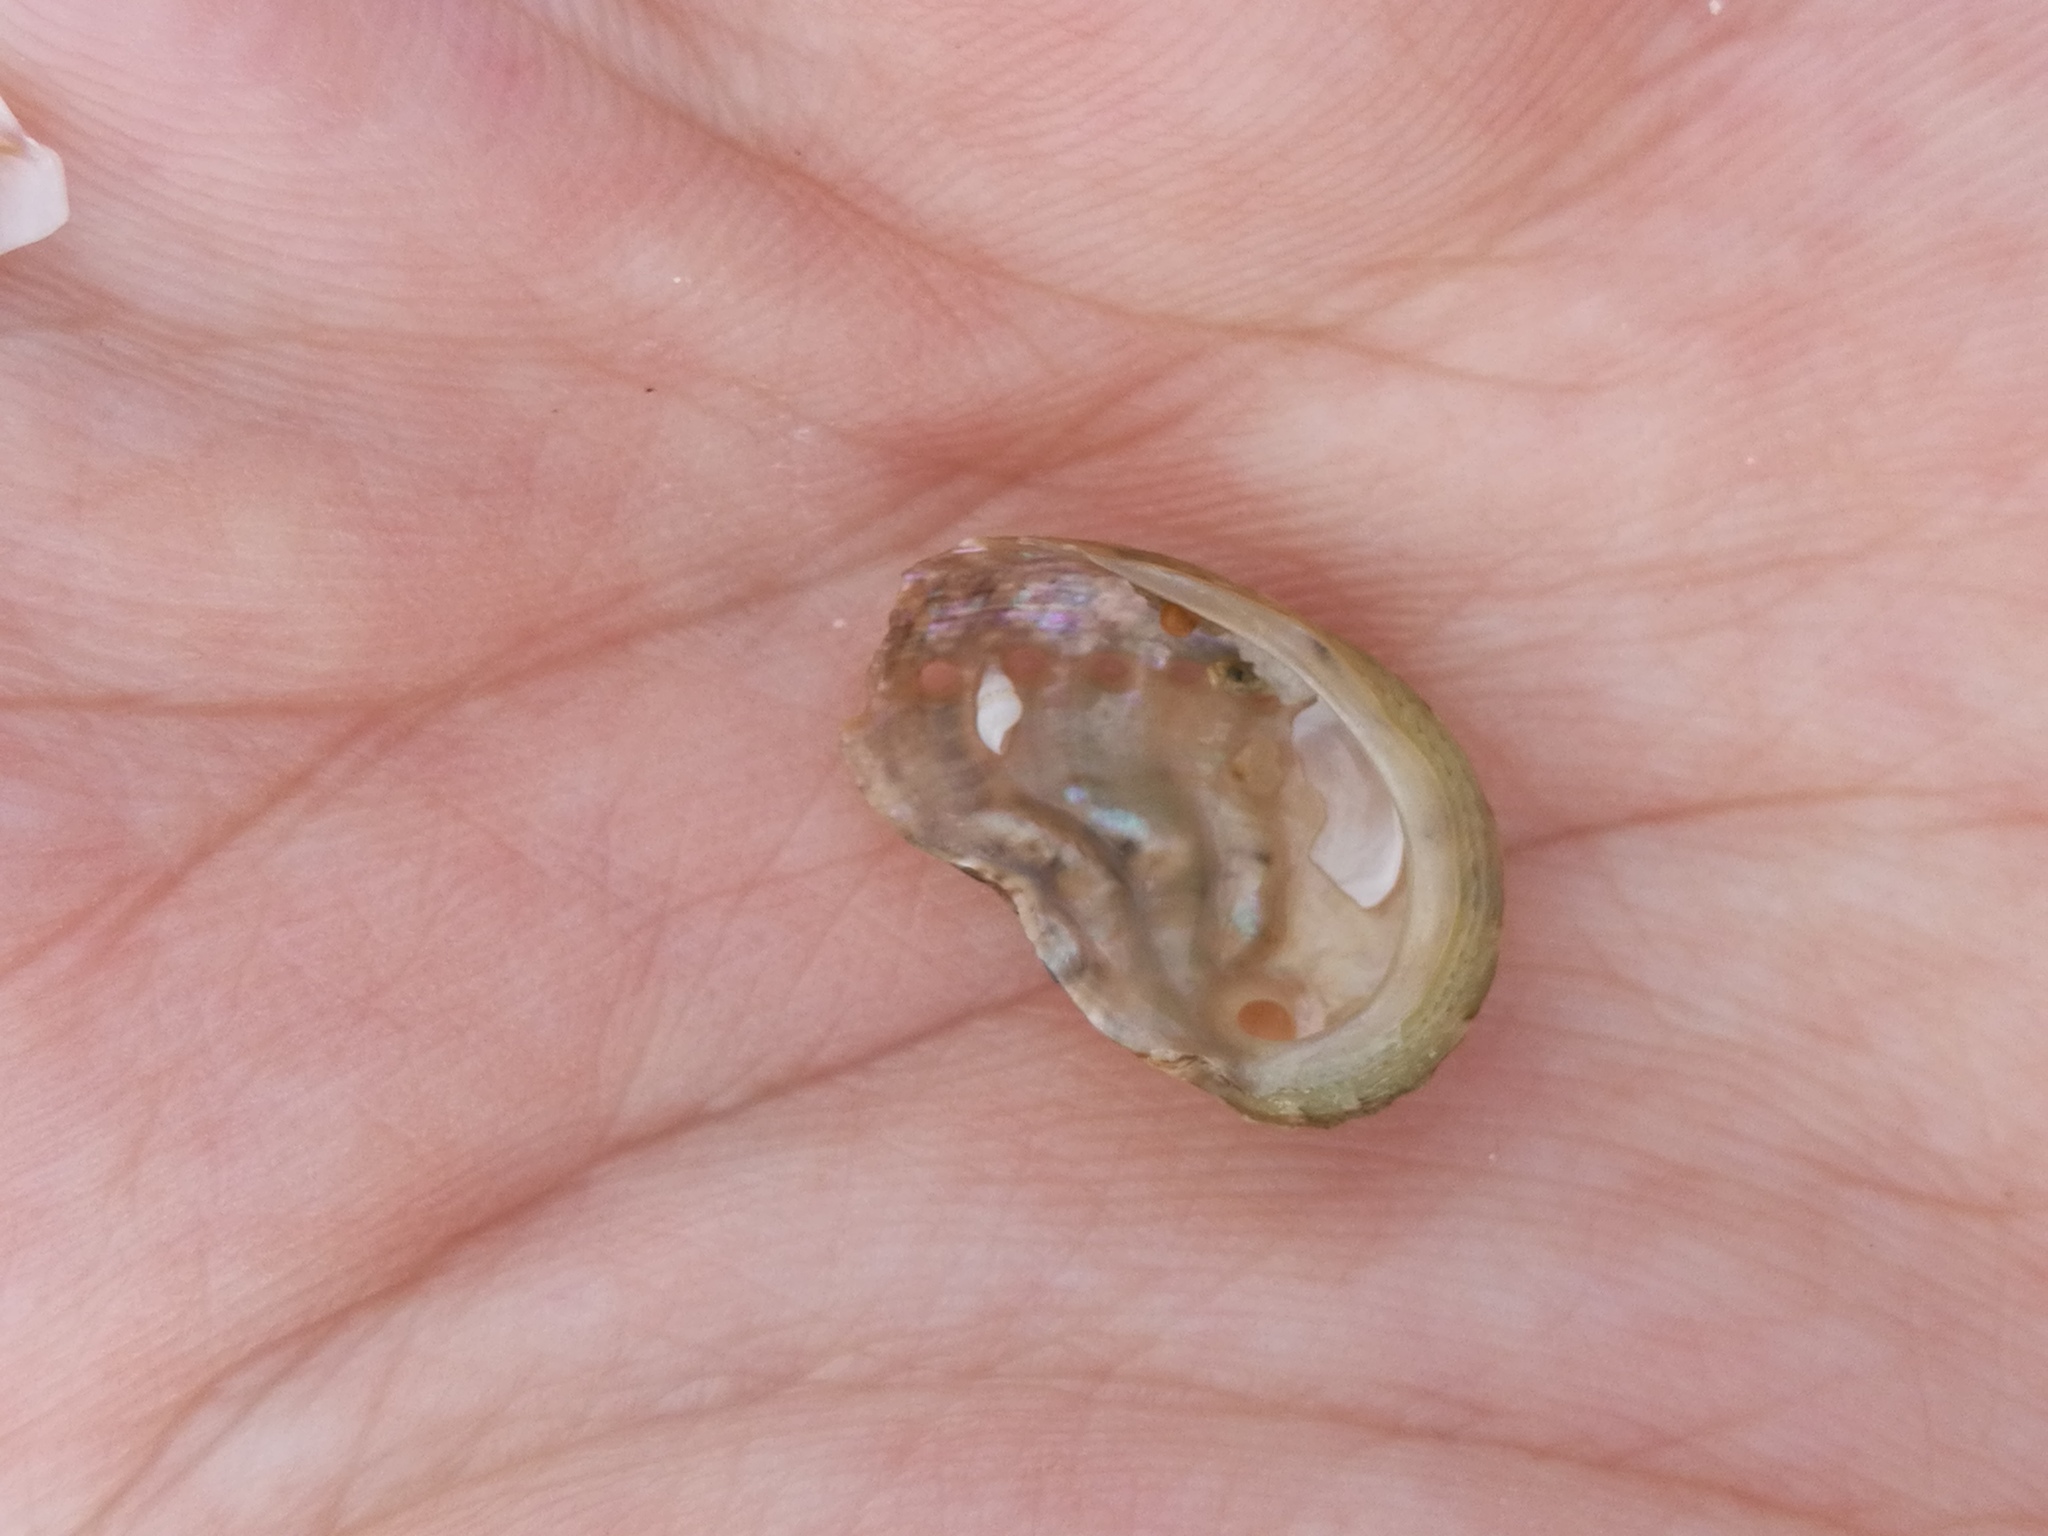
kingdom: Animalia
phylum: Mollusca
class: Gastropoda
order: Lepetellida
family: Haliotidae
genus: Haliotis
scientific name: Haliotis tuberculata
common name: Green ormer
